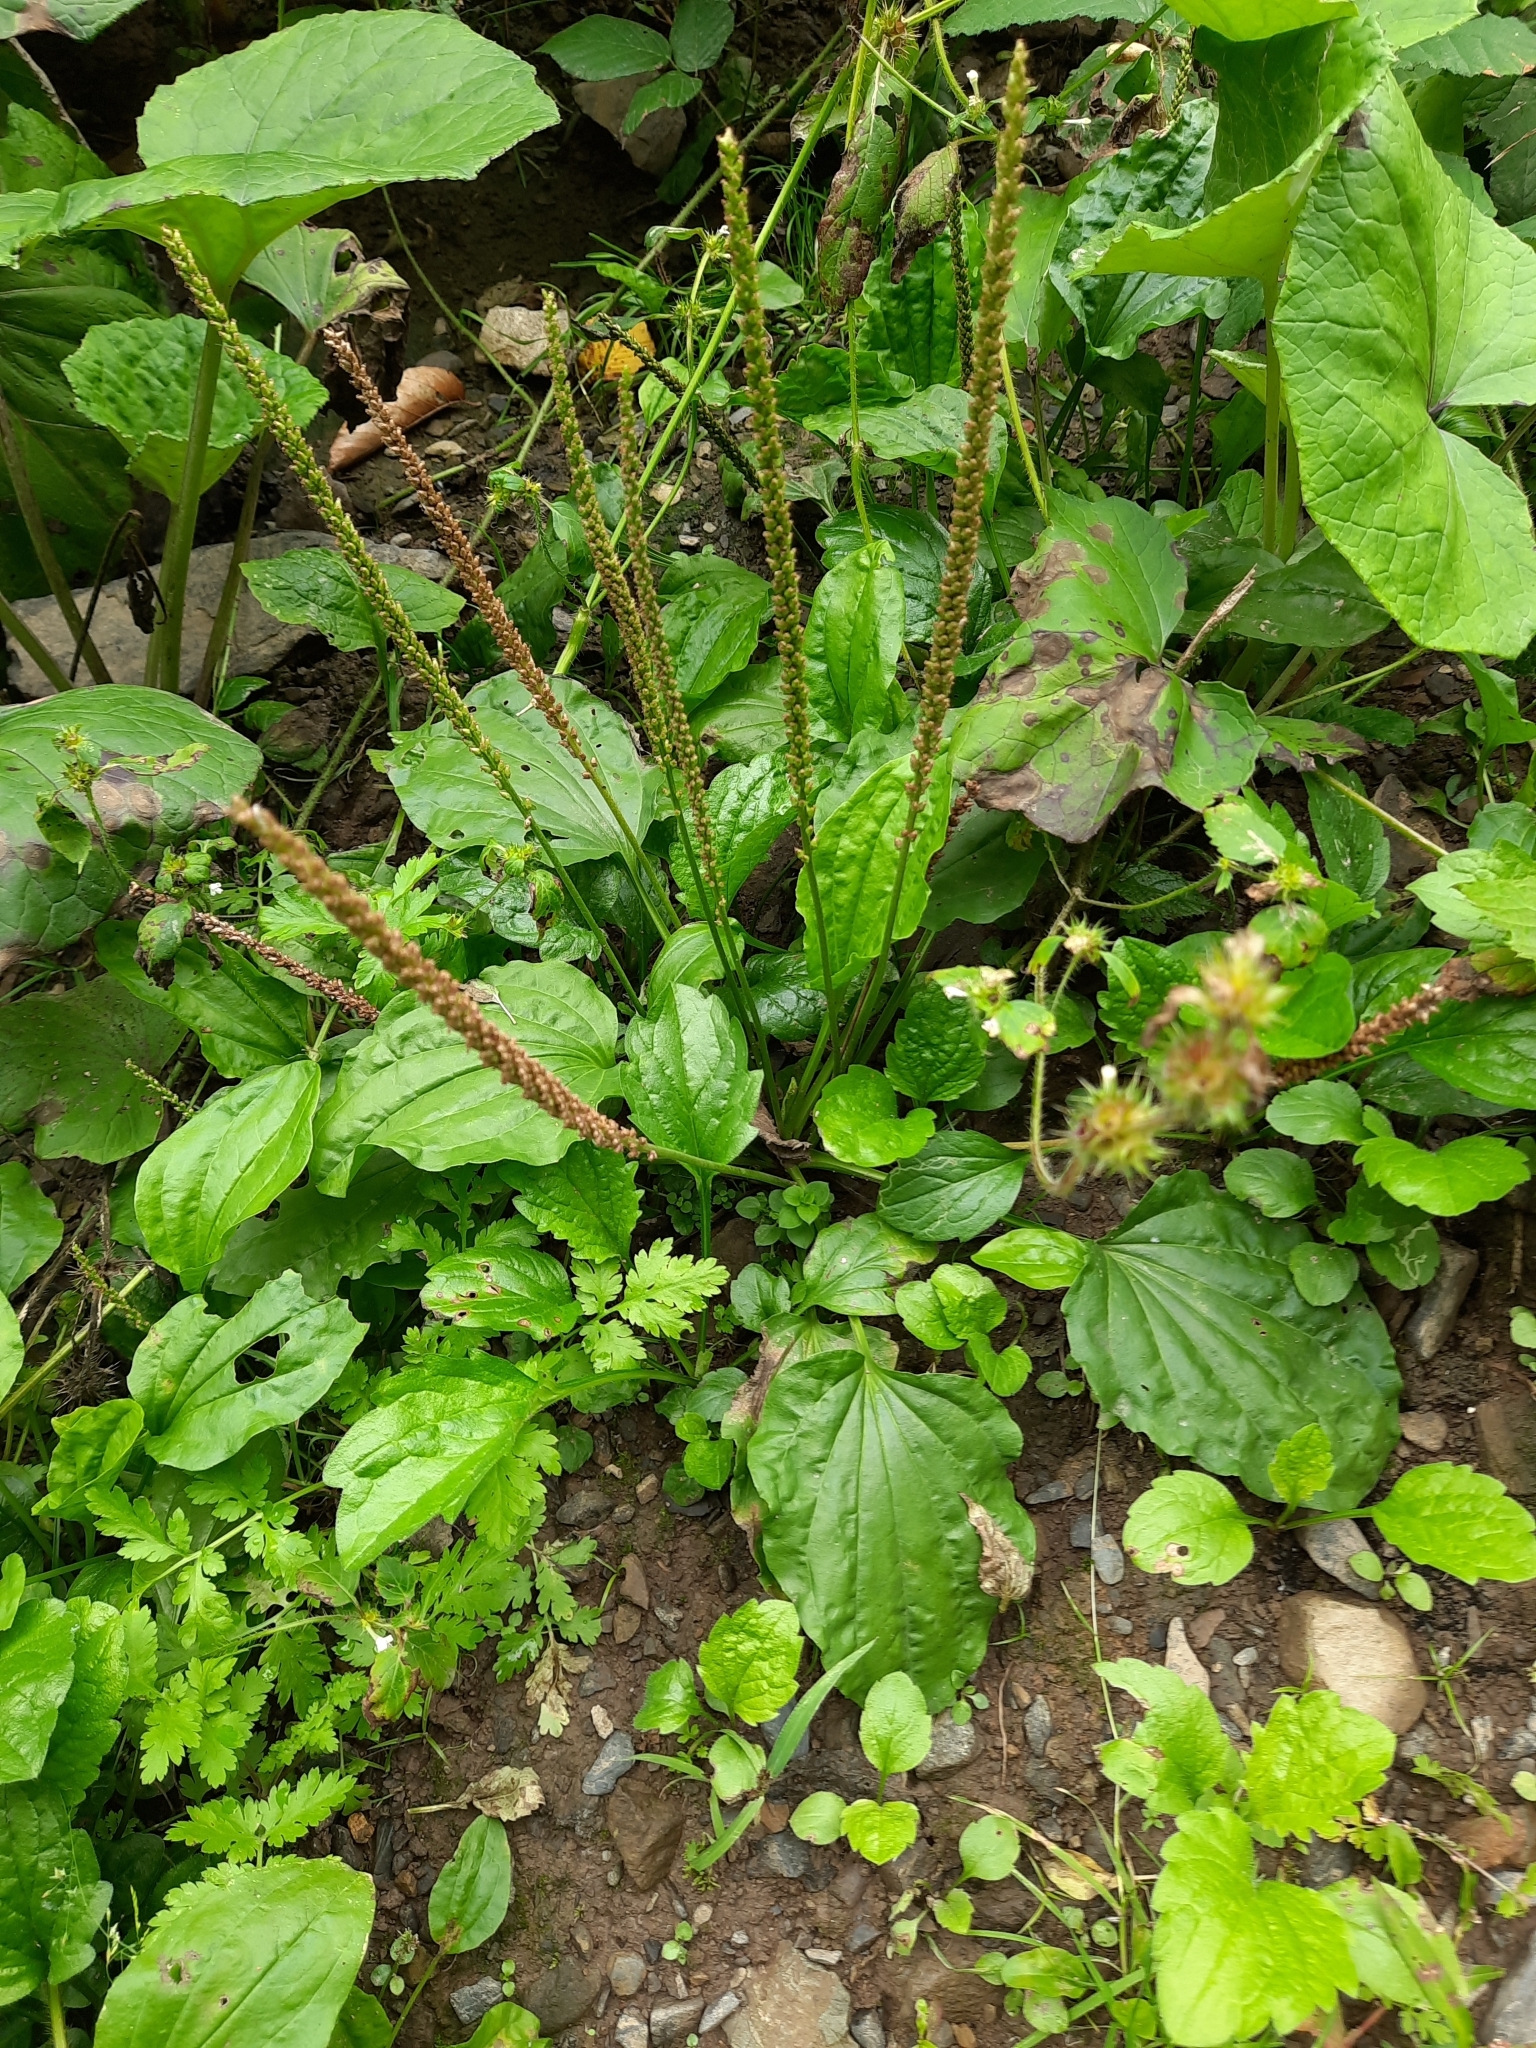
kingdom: Plantae
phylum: Tracheophyta
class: Magnoliopsida
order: Lamiales
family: Plantaginaceae
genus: Plantago
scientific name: Plantago major
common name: Common plantain
